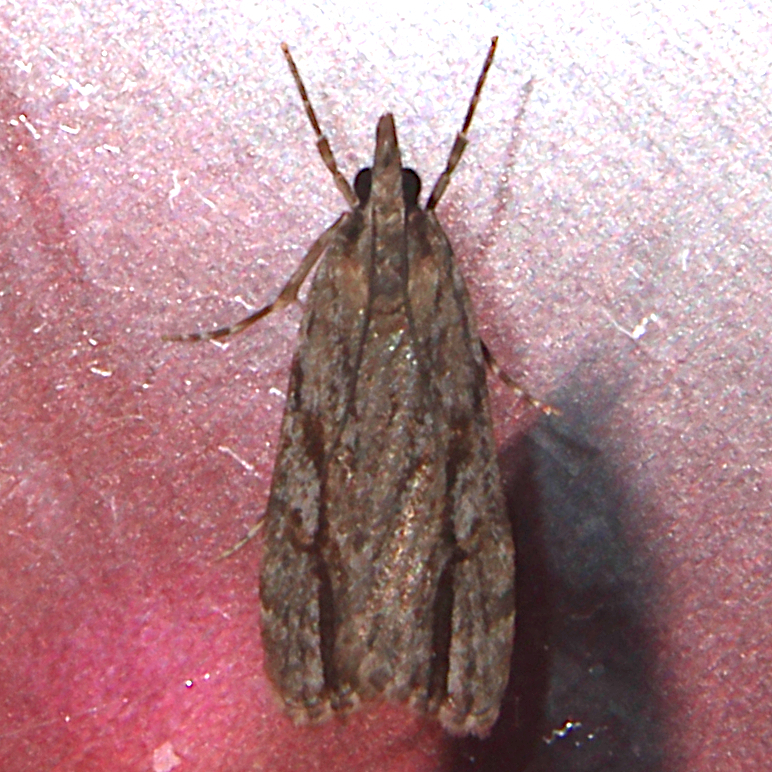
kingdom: Animalia
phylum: Arthropoda
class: Insecta
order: Lepidoptera
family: Crambidae
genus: Eudonia
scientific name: Eudonia bisinualis
